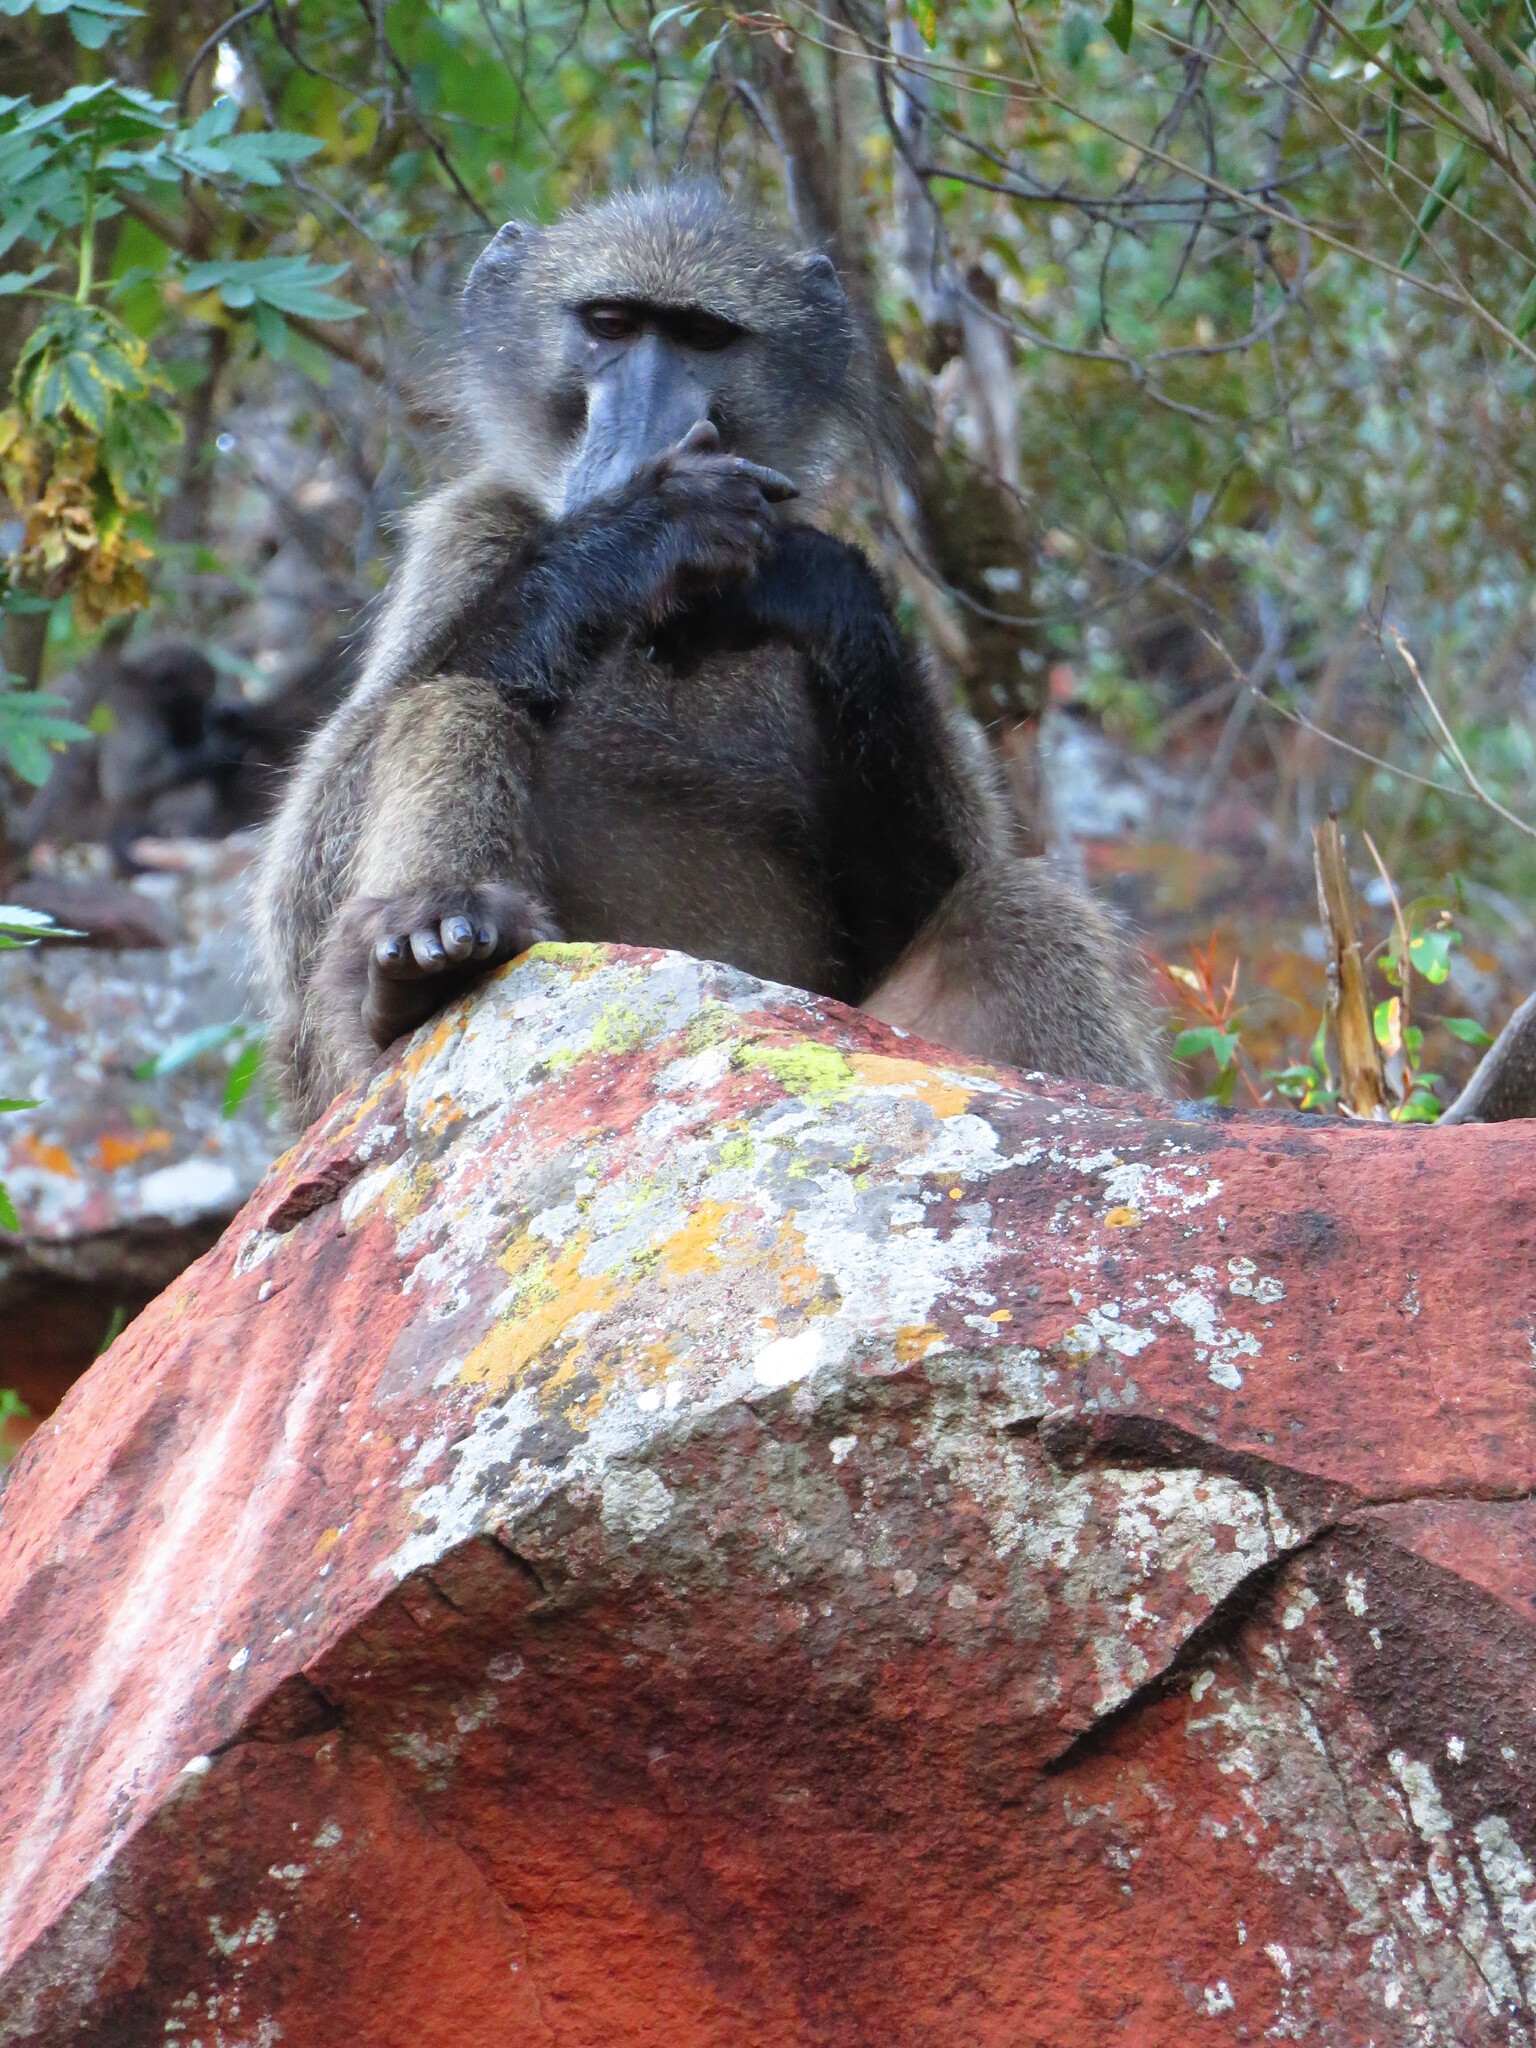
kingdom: Animalia
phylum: Chordata
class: Mammalia
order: Primates
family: Cercopithecidae
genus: Papio
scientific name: Papio ursinus
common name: Chacma baboon
